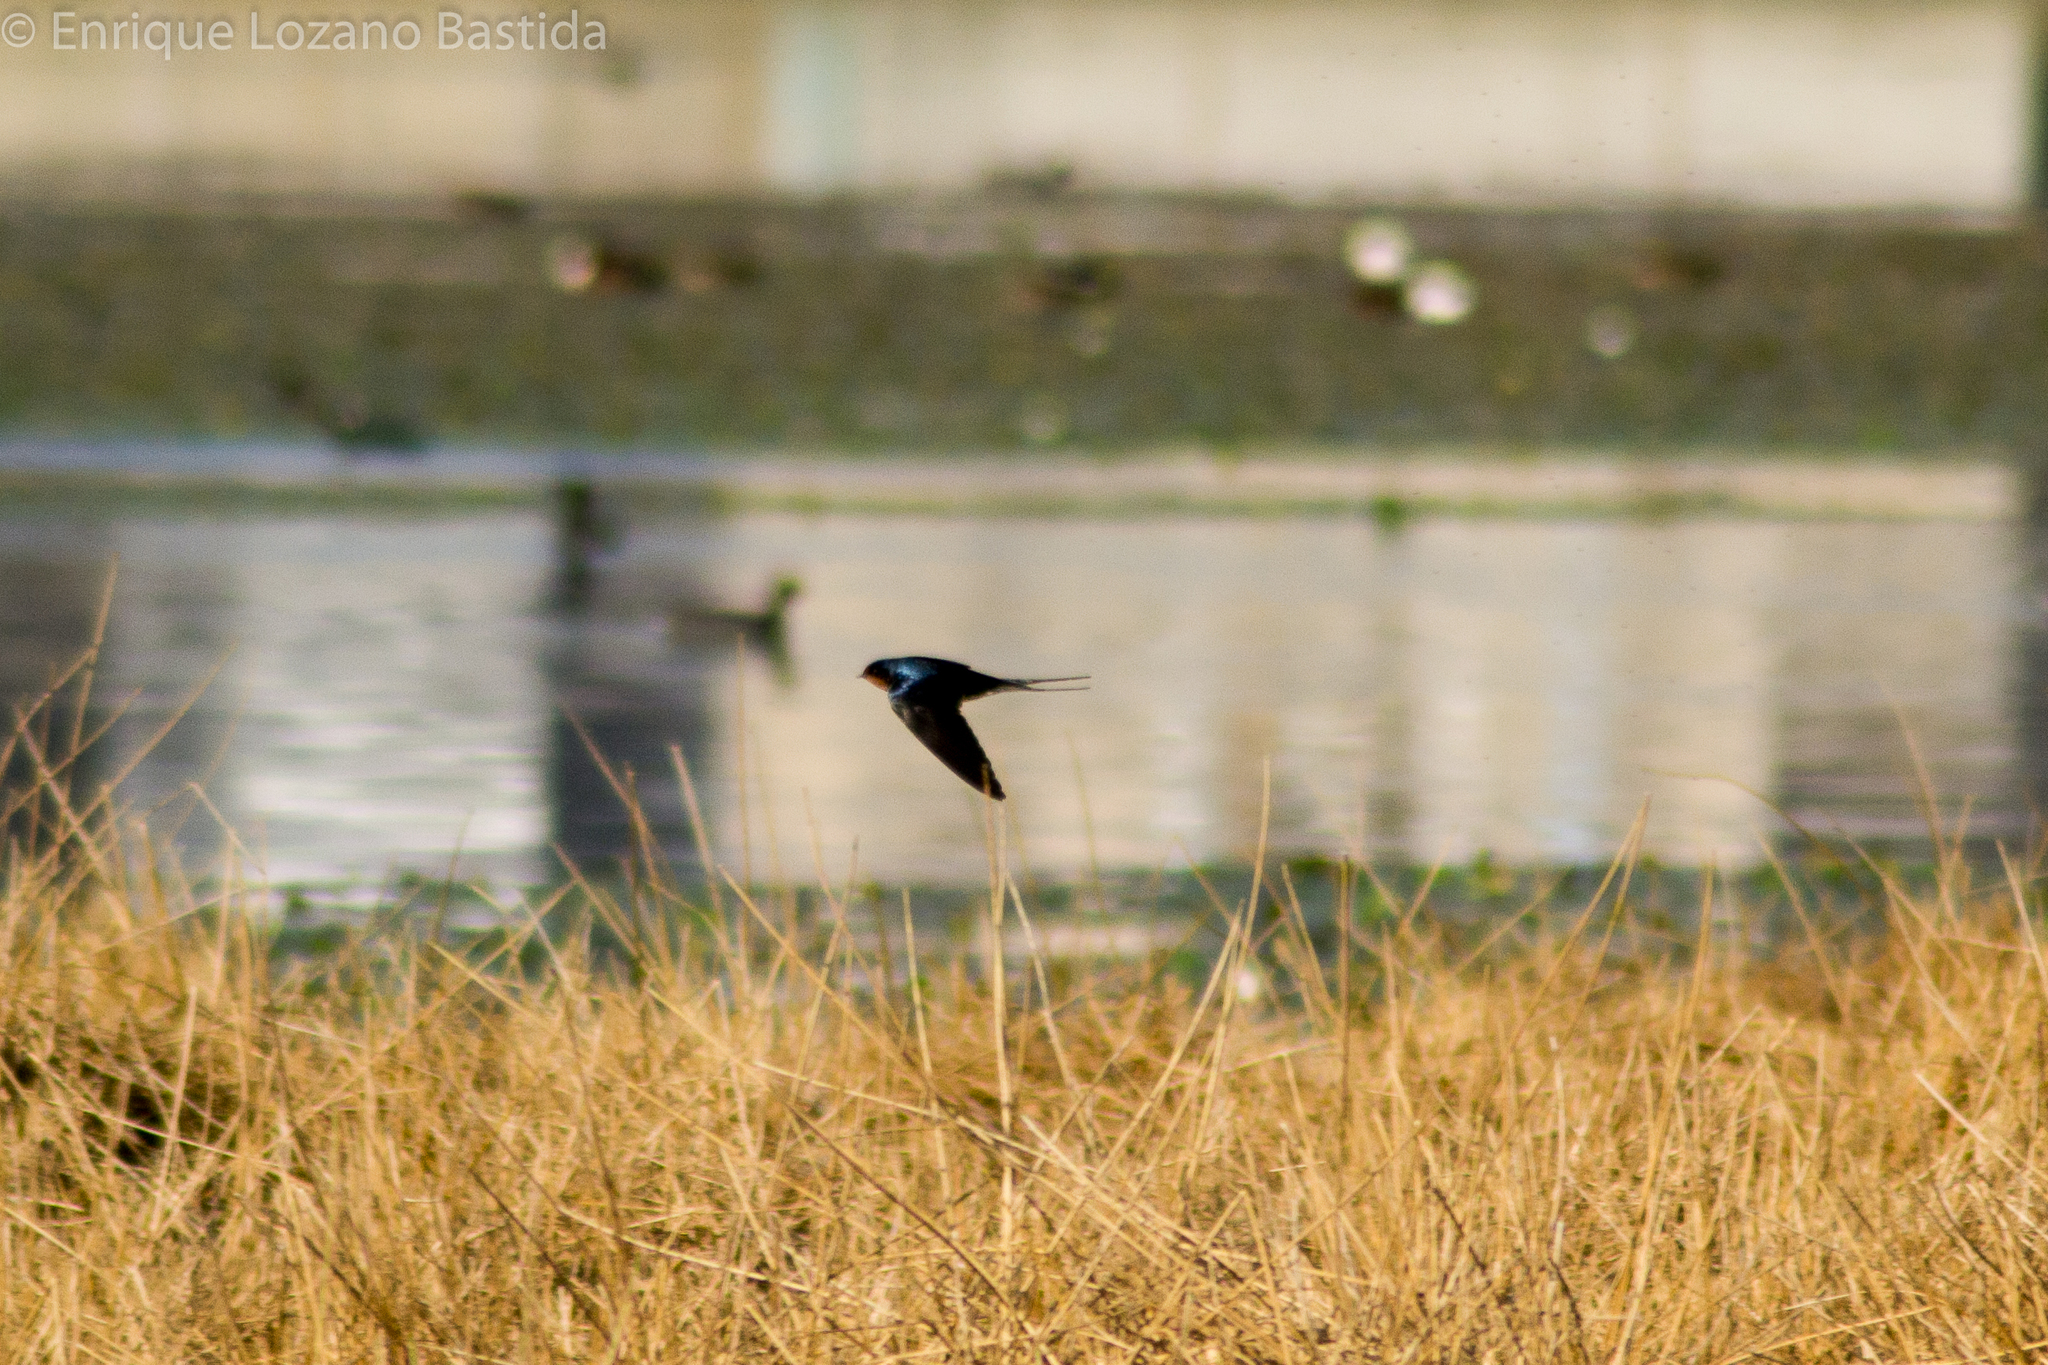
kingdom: Animalia
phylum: Chordata
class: Aves
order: Passeriformes
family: Hirundinidae
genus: Hirundo
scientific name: Hirundo rustica
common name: Barn swallow
